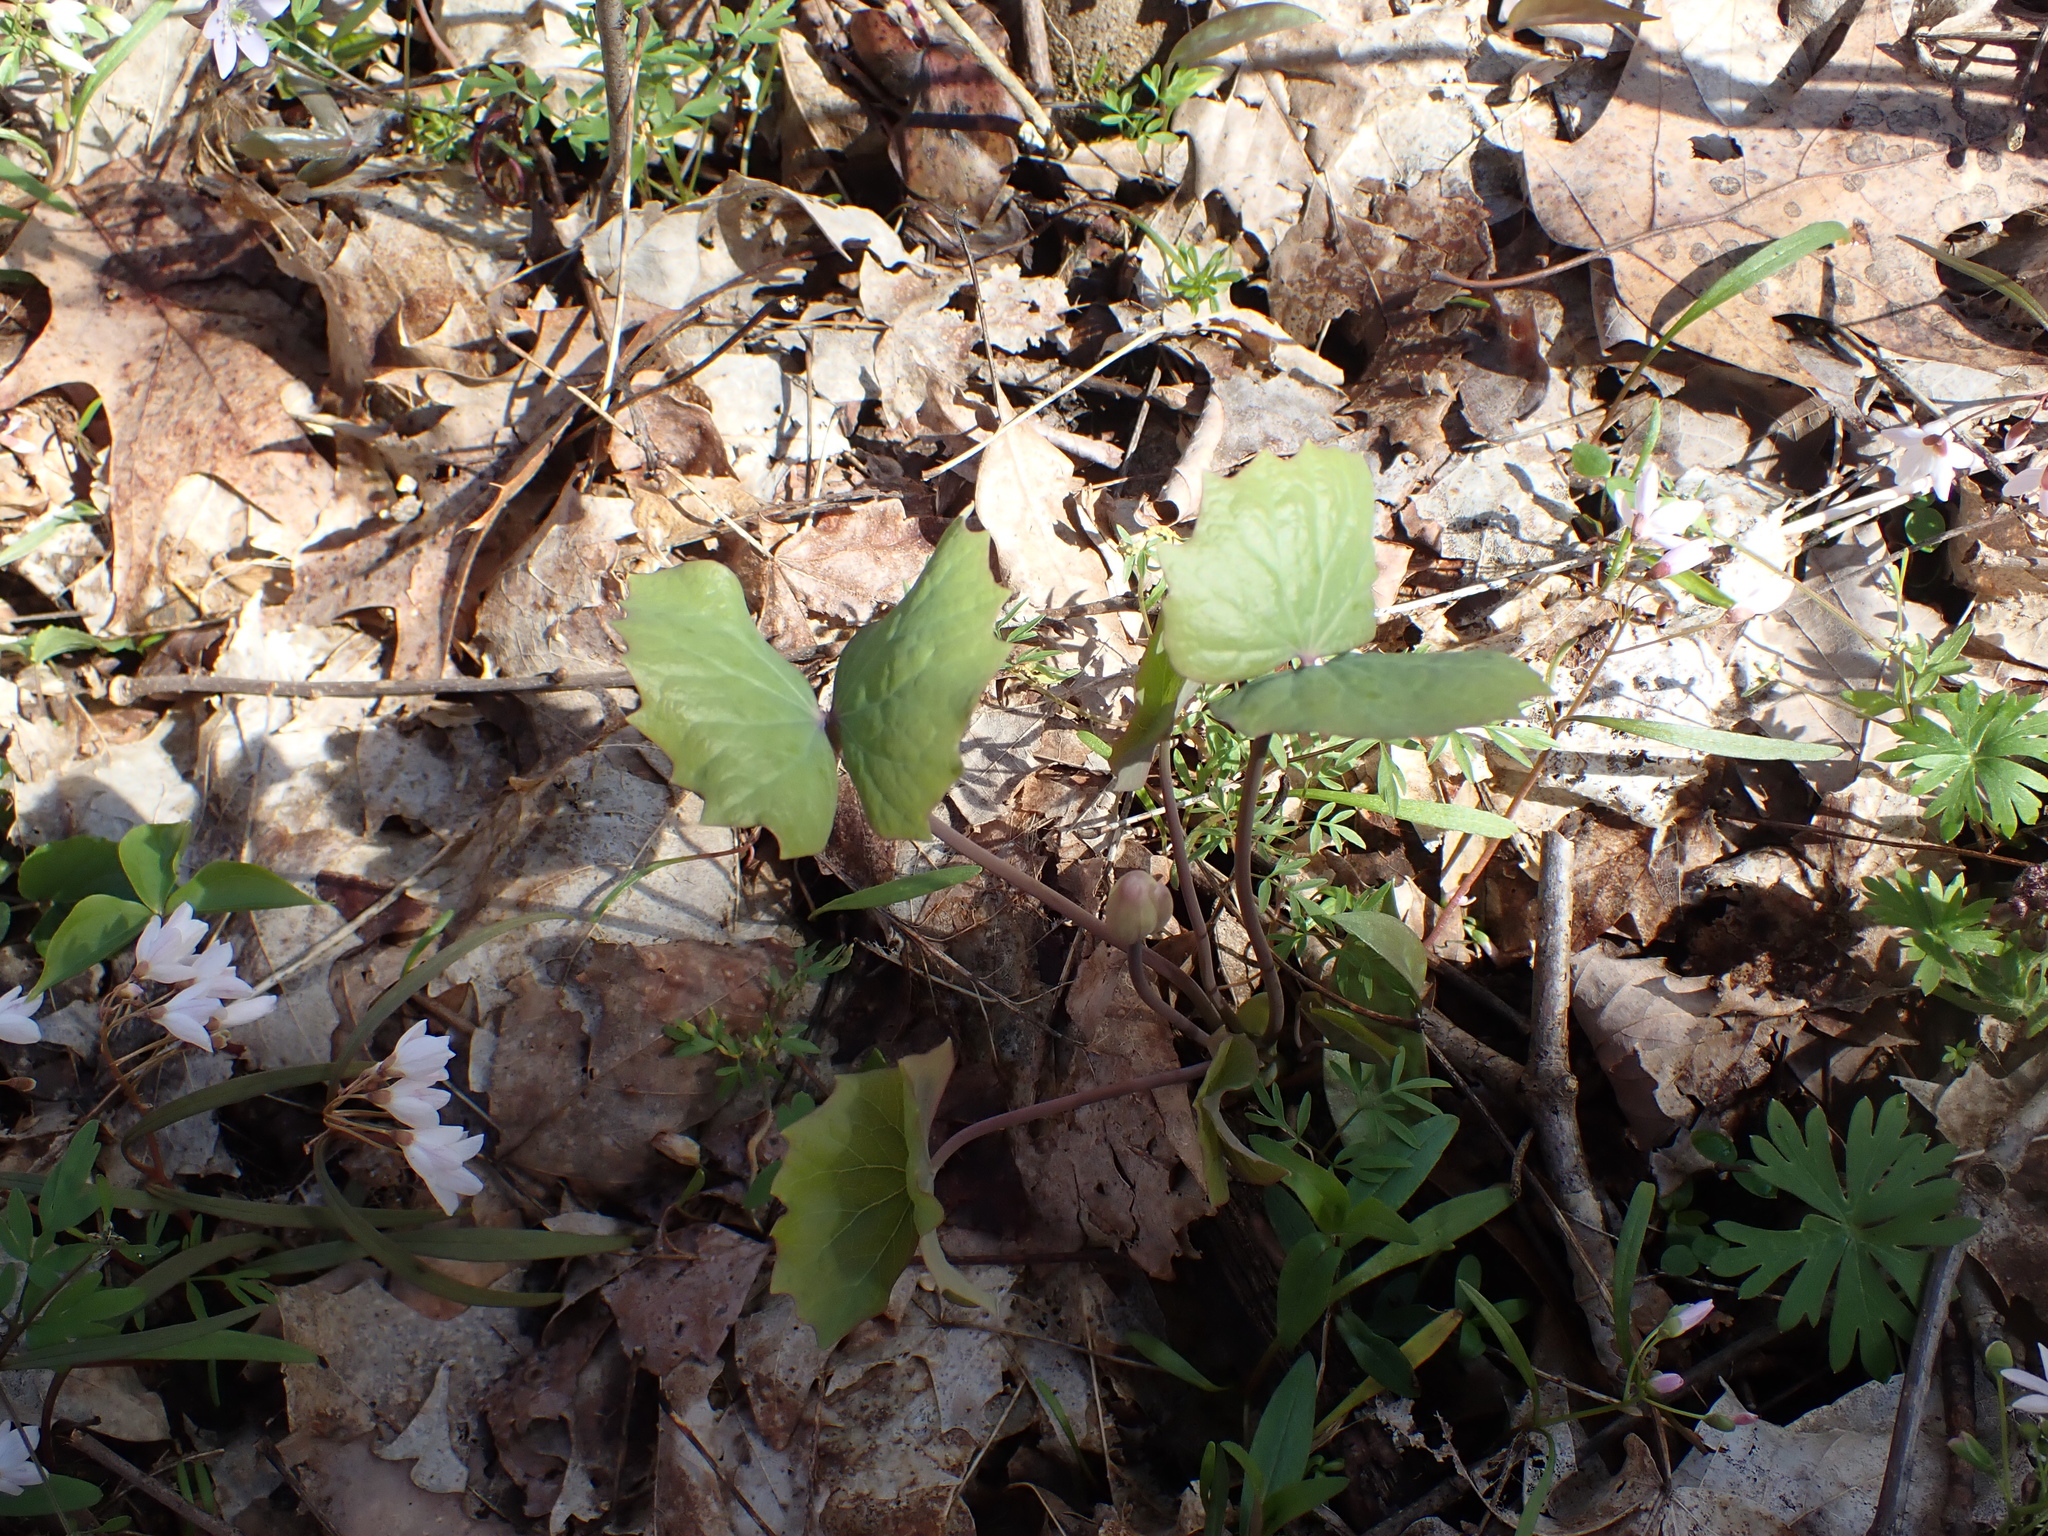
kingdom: Plantae
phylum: Tracheophyta
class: Magnoliopsida
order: Ranunculales
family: Berberidaceae
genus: Jeffersonia
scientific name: Jeffersonia diphylla
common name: Rheumatism-root
